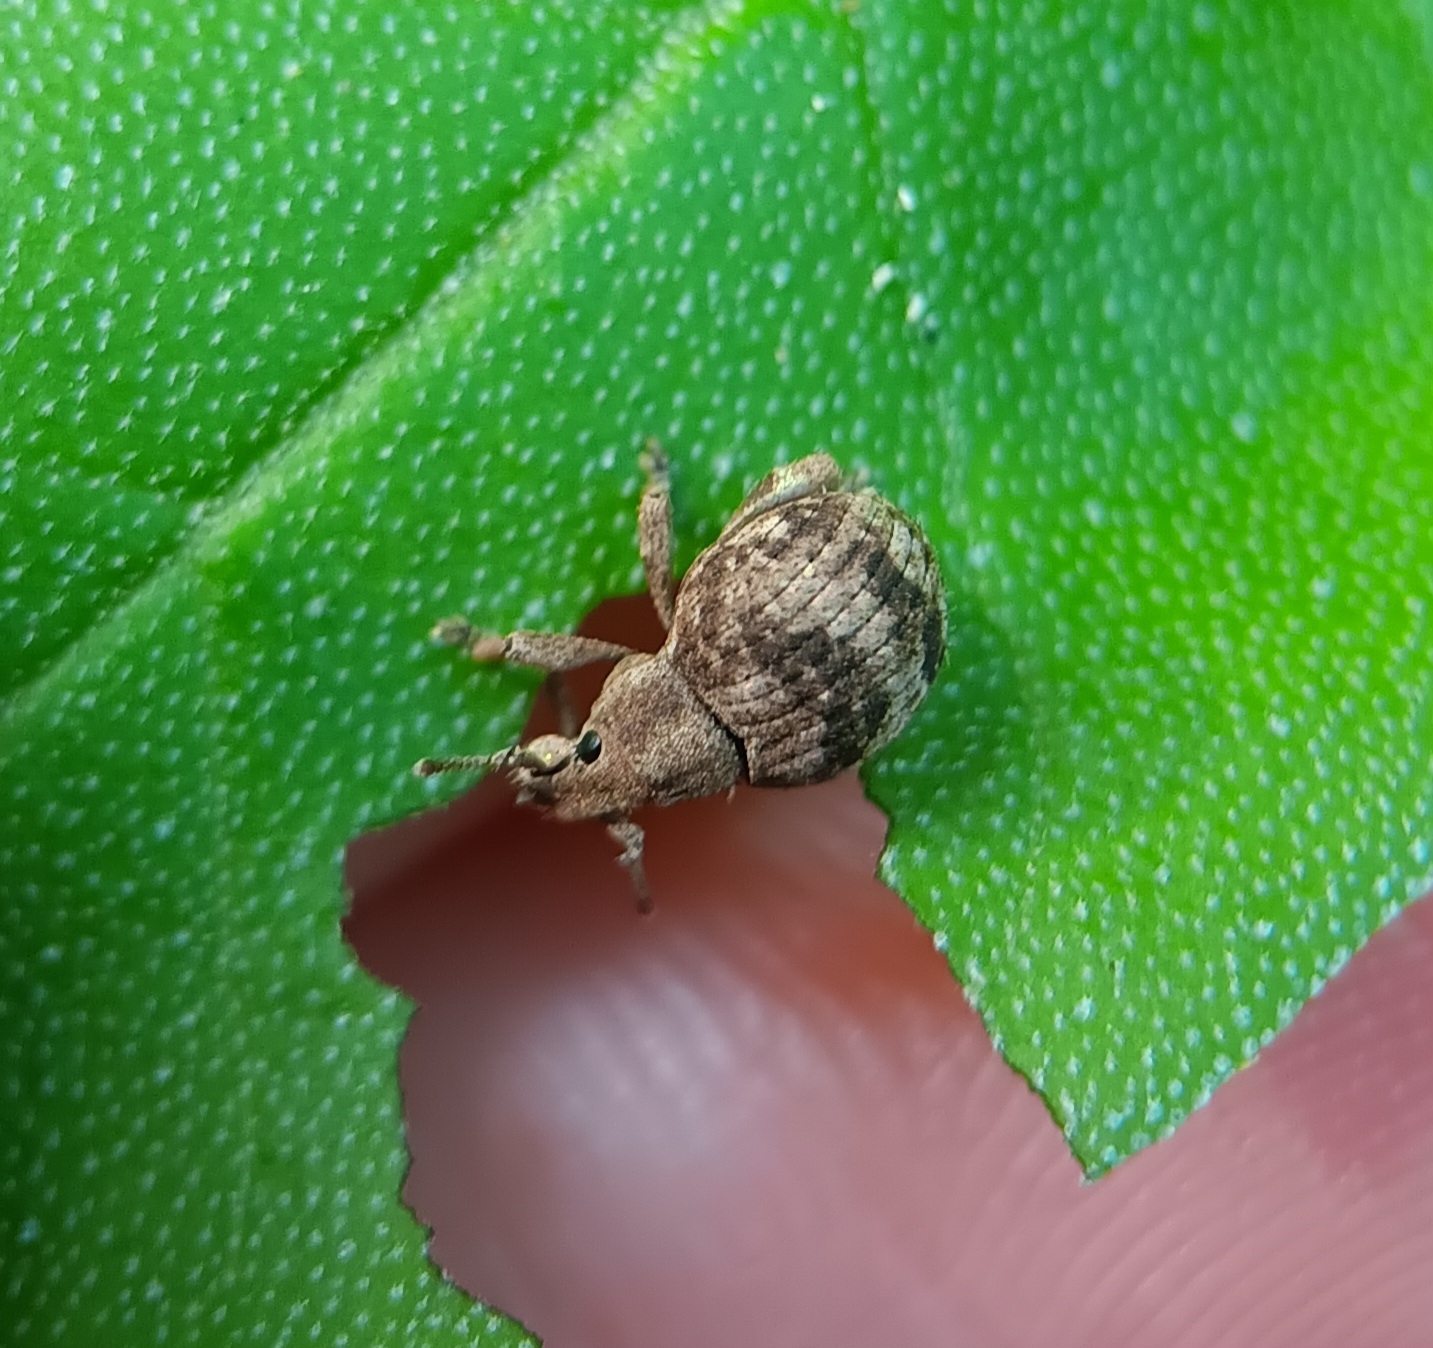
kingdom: Animalia
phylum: Arthropoda
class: Insecta
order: Coleoptera
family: Curculionidae
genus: Pseudocneorhinus
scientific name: Pseudocneorhinus bifasciatus
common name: Two-banded japanese weevil
